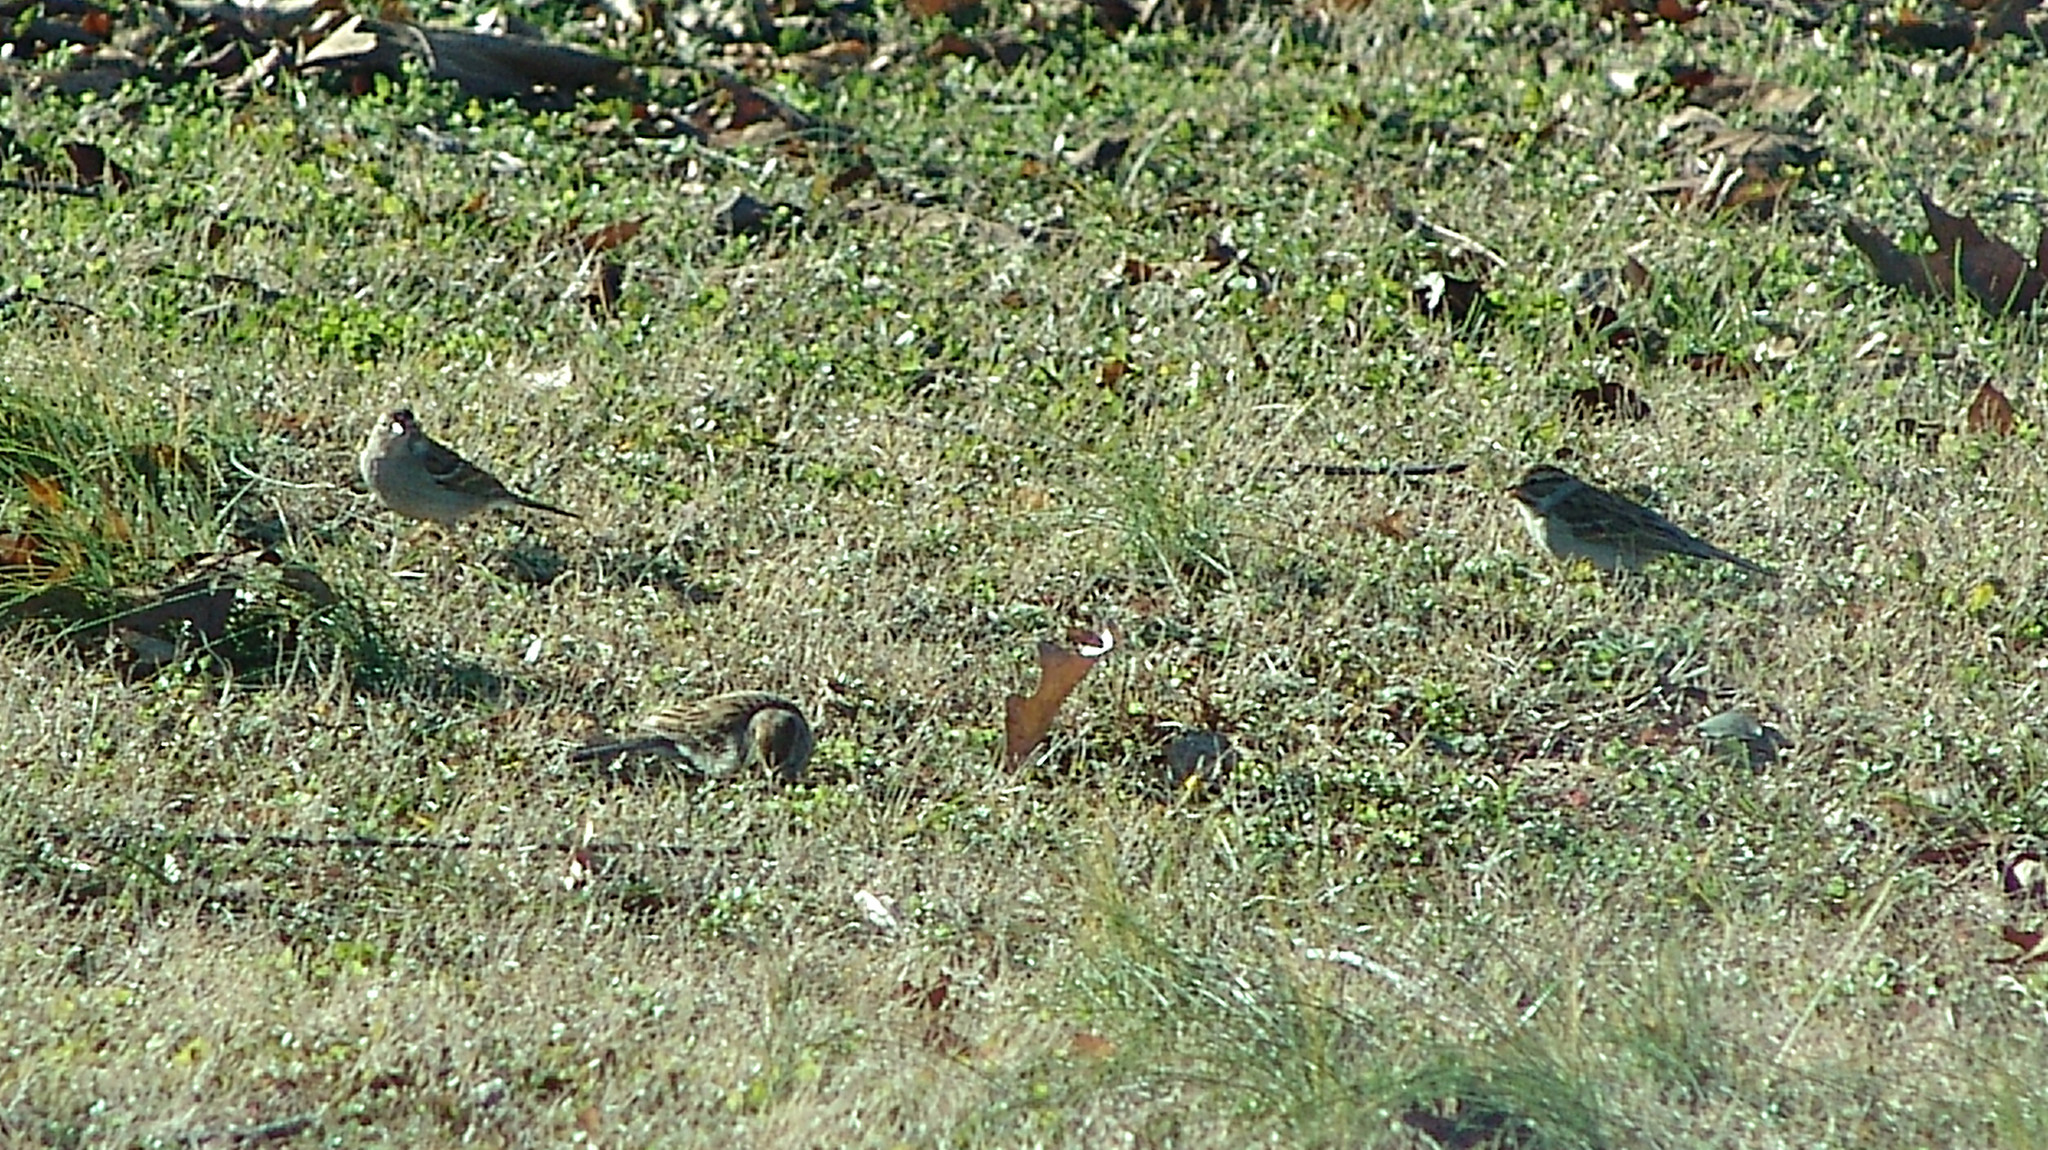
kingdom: Animalia
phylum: Chordata
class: Aves
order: Passeriformes
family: Passerellidae
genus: Spizella
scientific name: Spizella passerina
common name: Chipping sparrow
